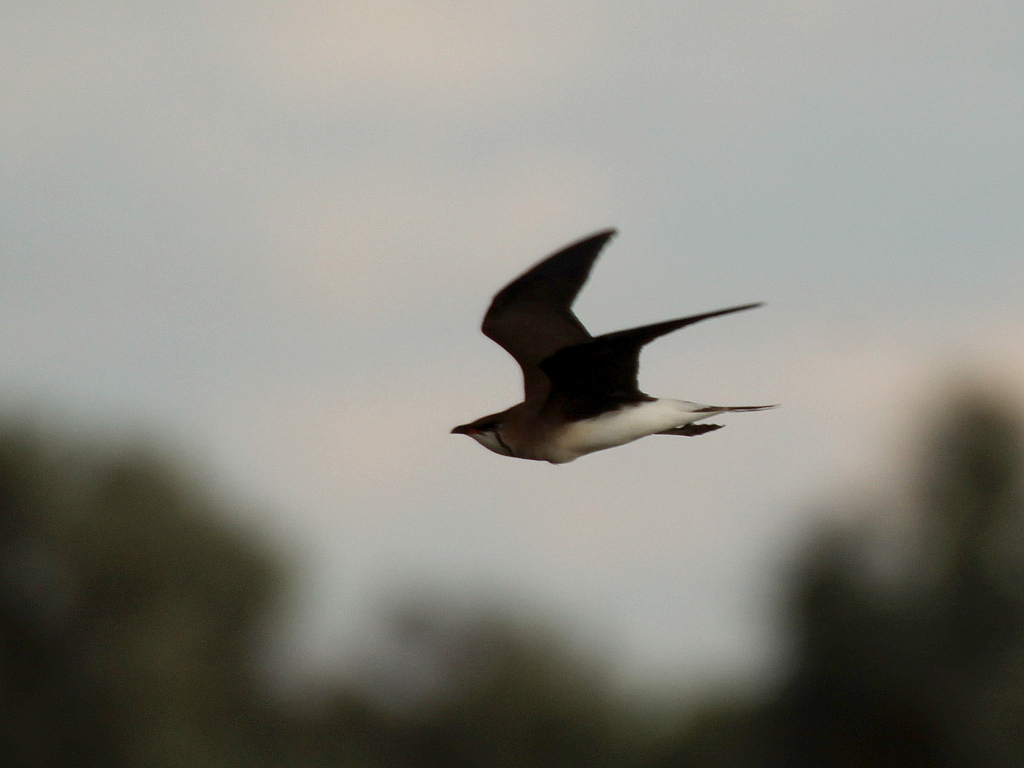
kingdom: Animalia
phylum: Chordata
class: Aves
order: Charadriiformes
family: Glareolidae
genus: Glareola
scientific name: Glareola nordmanni
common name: Black-winged pratincole
